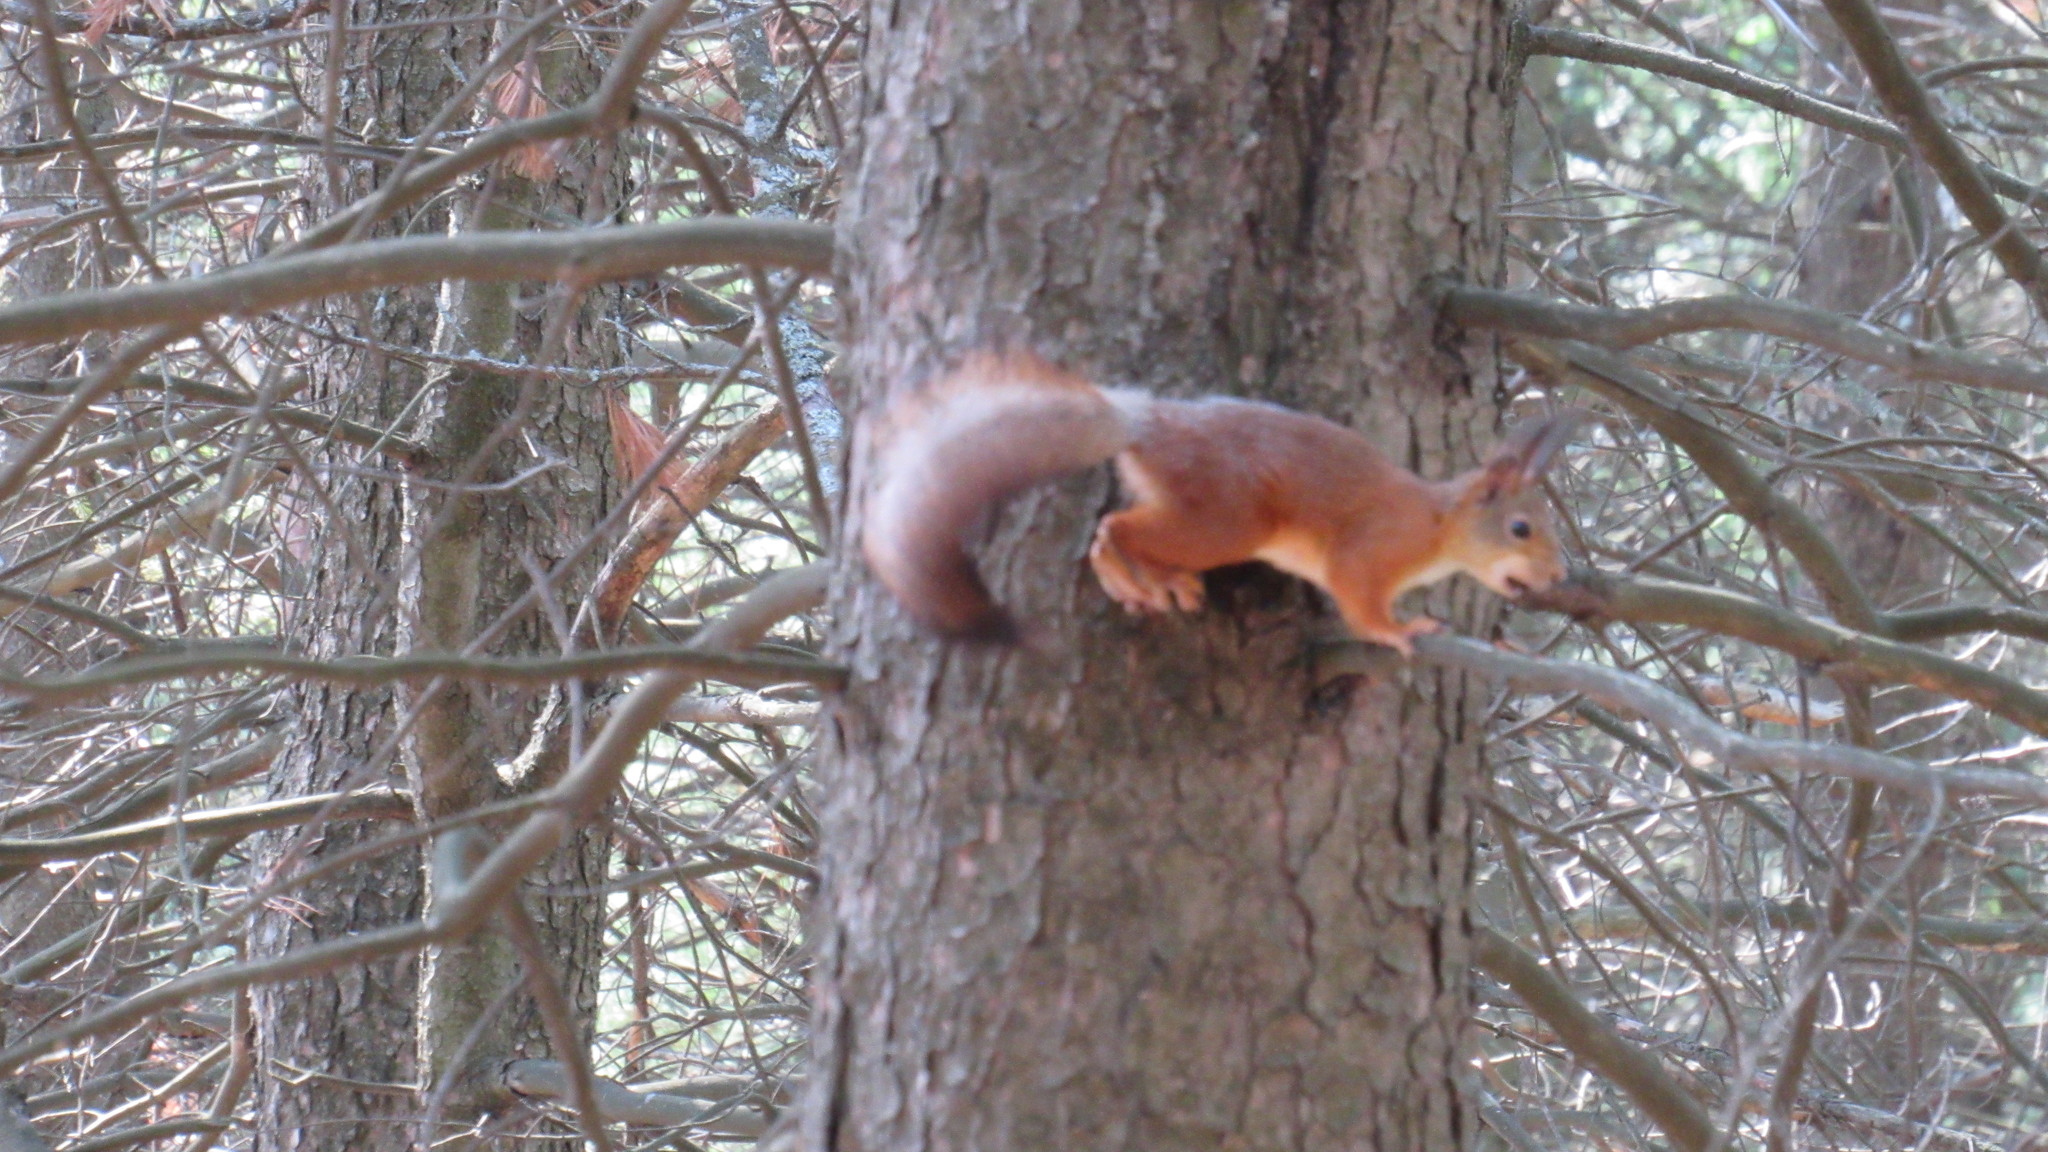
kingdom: Animalia
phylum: Chordata
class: Mammalia
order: Rodentia
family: Sciuridae
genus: Sciurus
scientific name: Sciurus vulgaris
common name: Eurasian red squirrel
